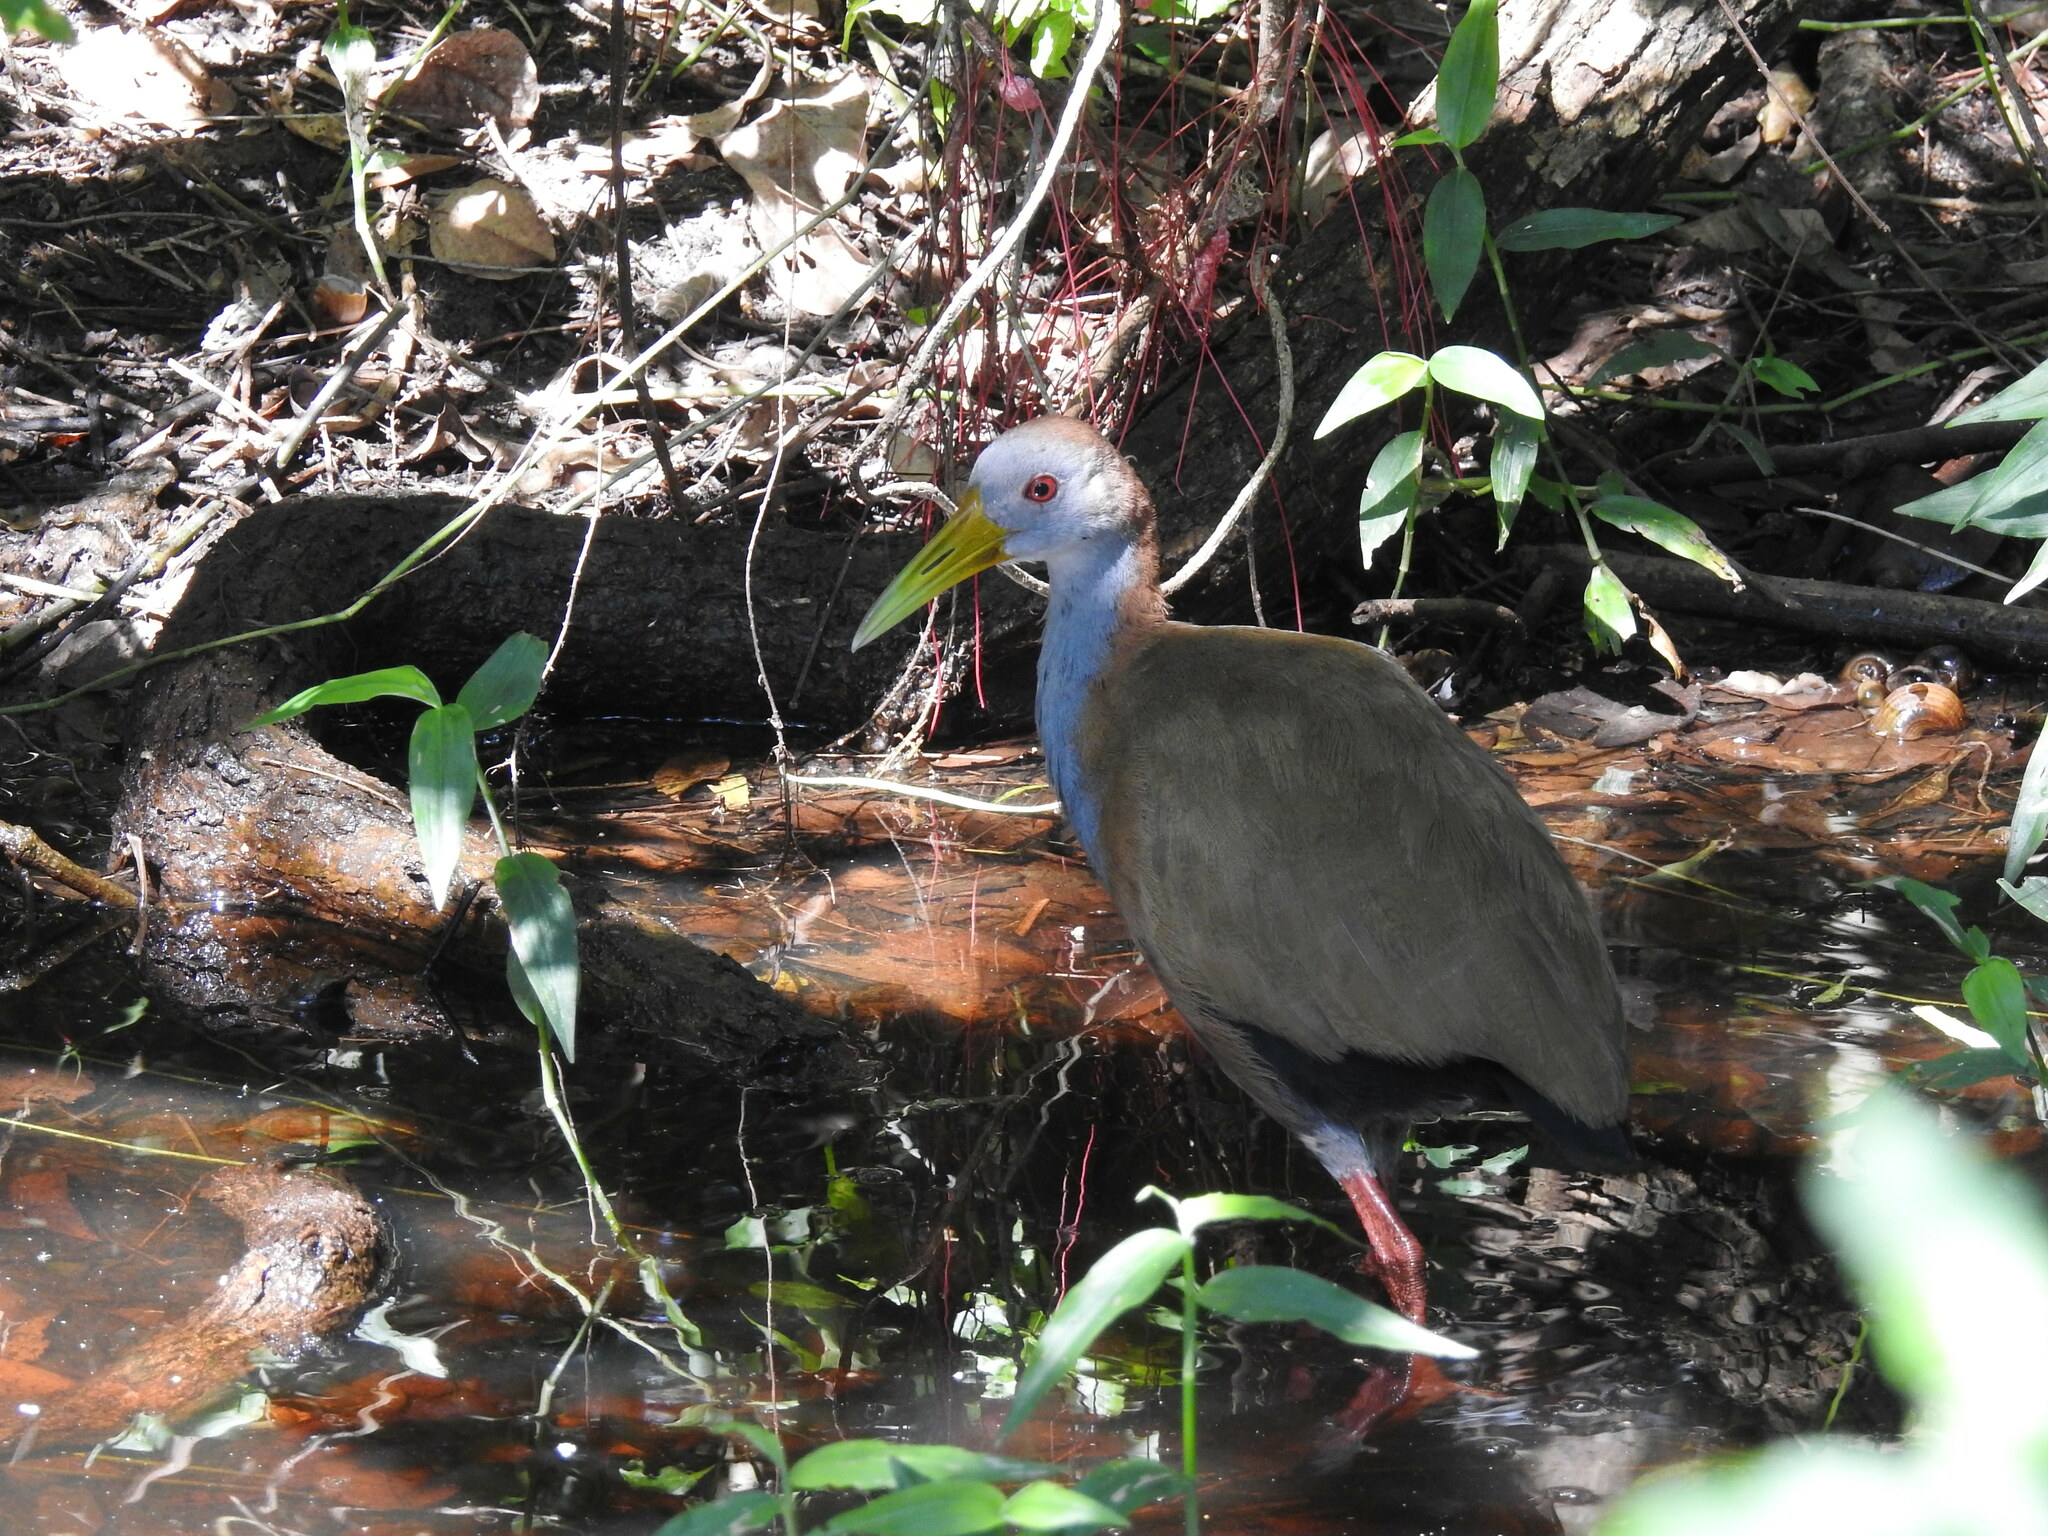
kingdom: Animalia
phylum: Chordata
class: Aves
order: Gruiformes
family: Rallidae
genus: Aramides
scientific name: Aramides ypecaha
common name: Giant wood rail
